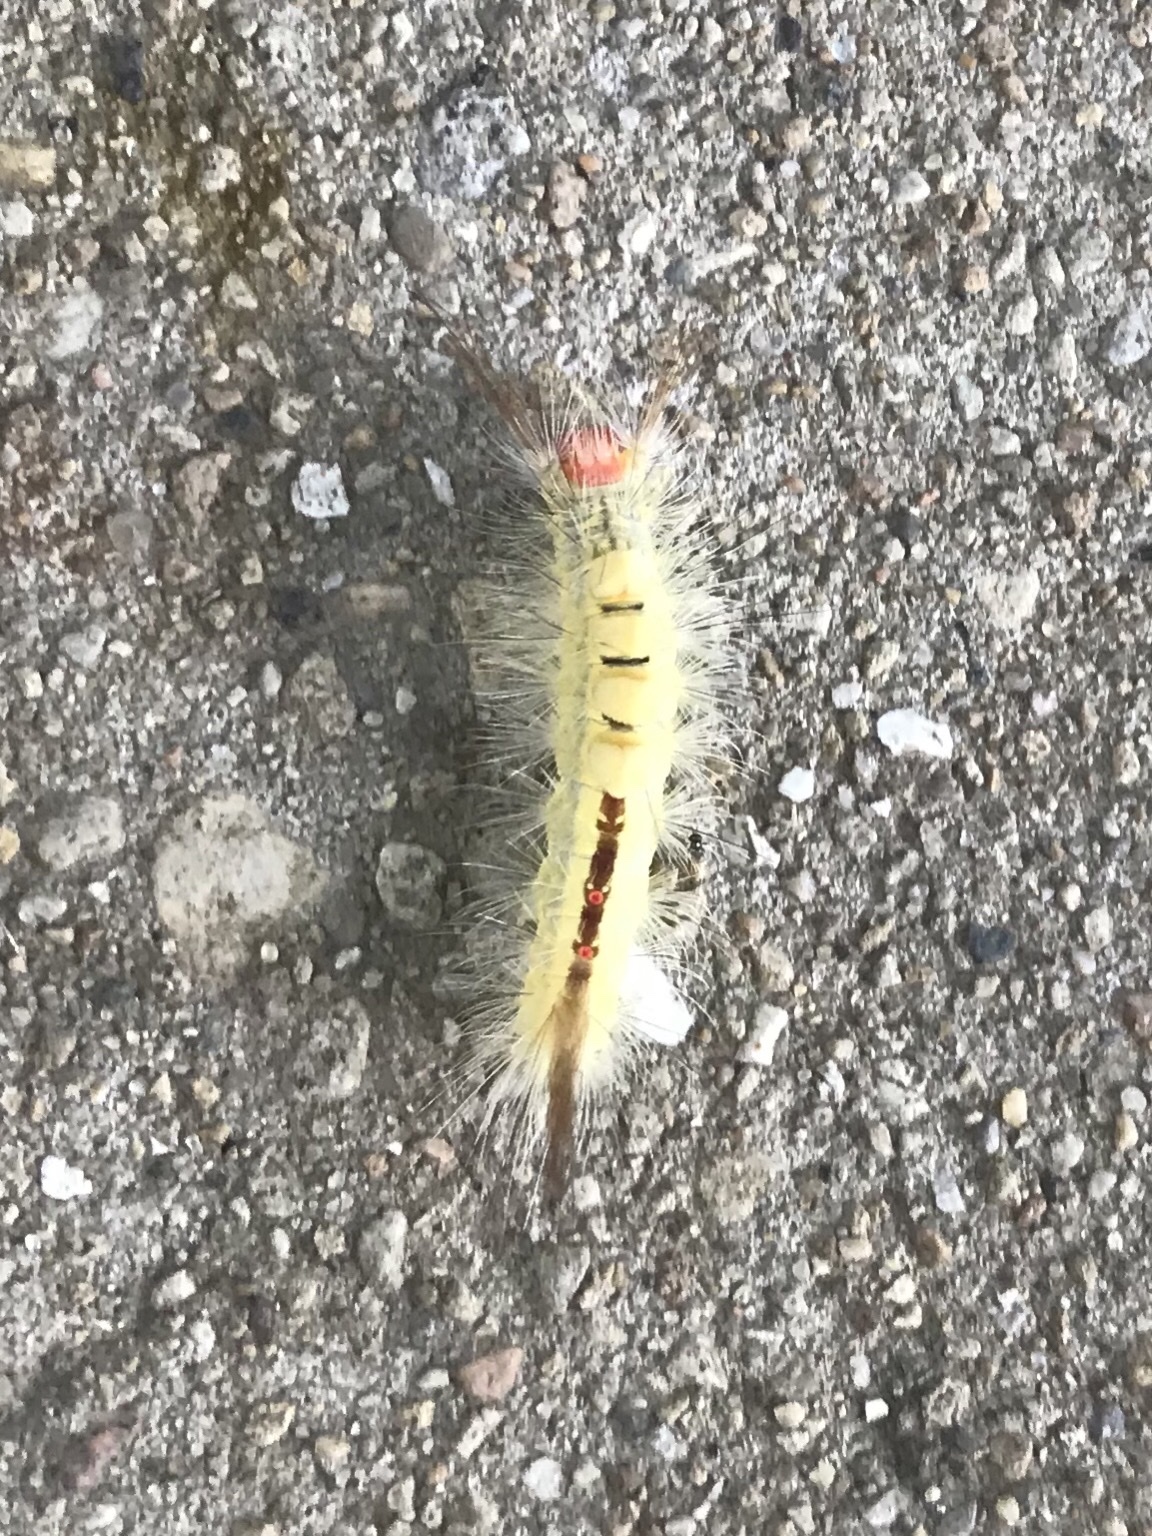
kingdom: Animalia
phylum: Arthropoda
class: Insecta
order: Lepidoptera
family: Erebidae
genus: Orgyia
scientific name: Orgyia leucostigma
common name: White-marked tussock moth
